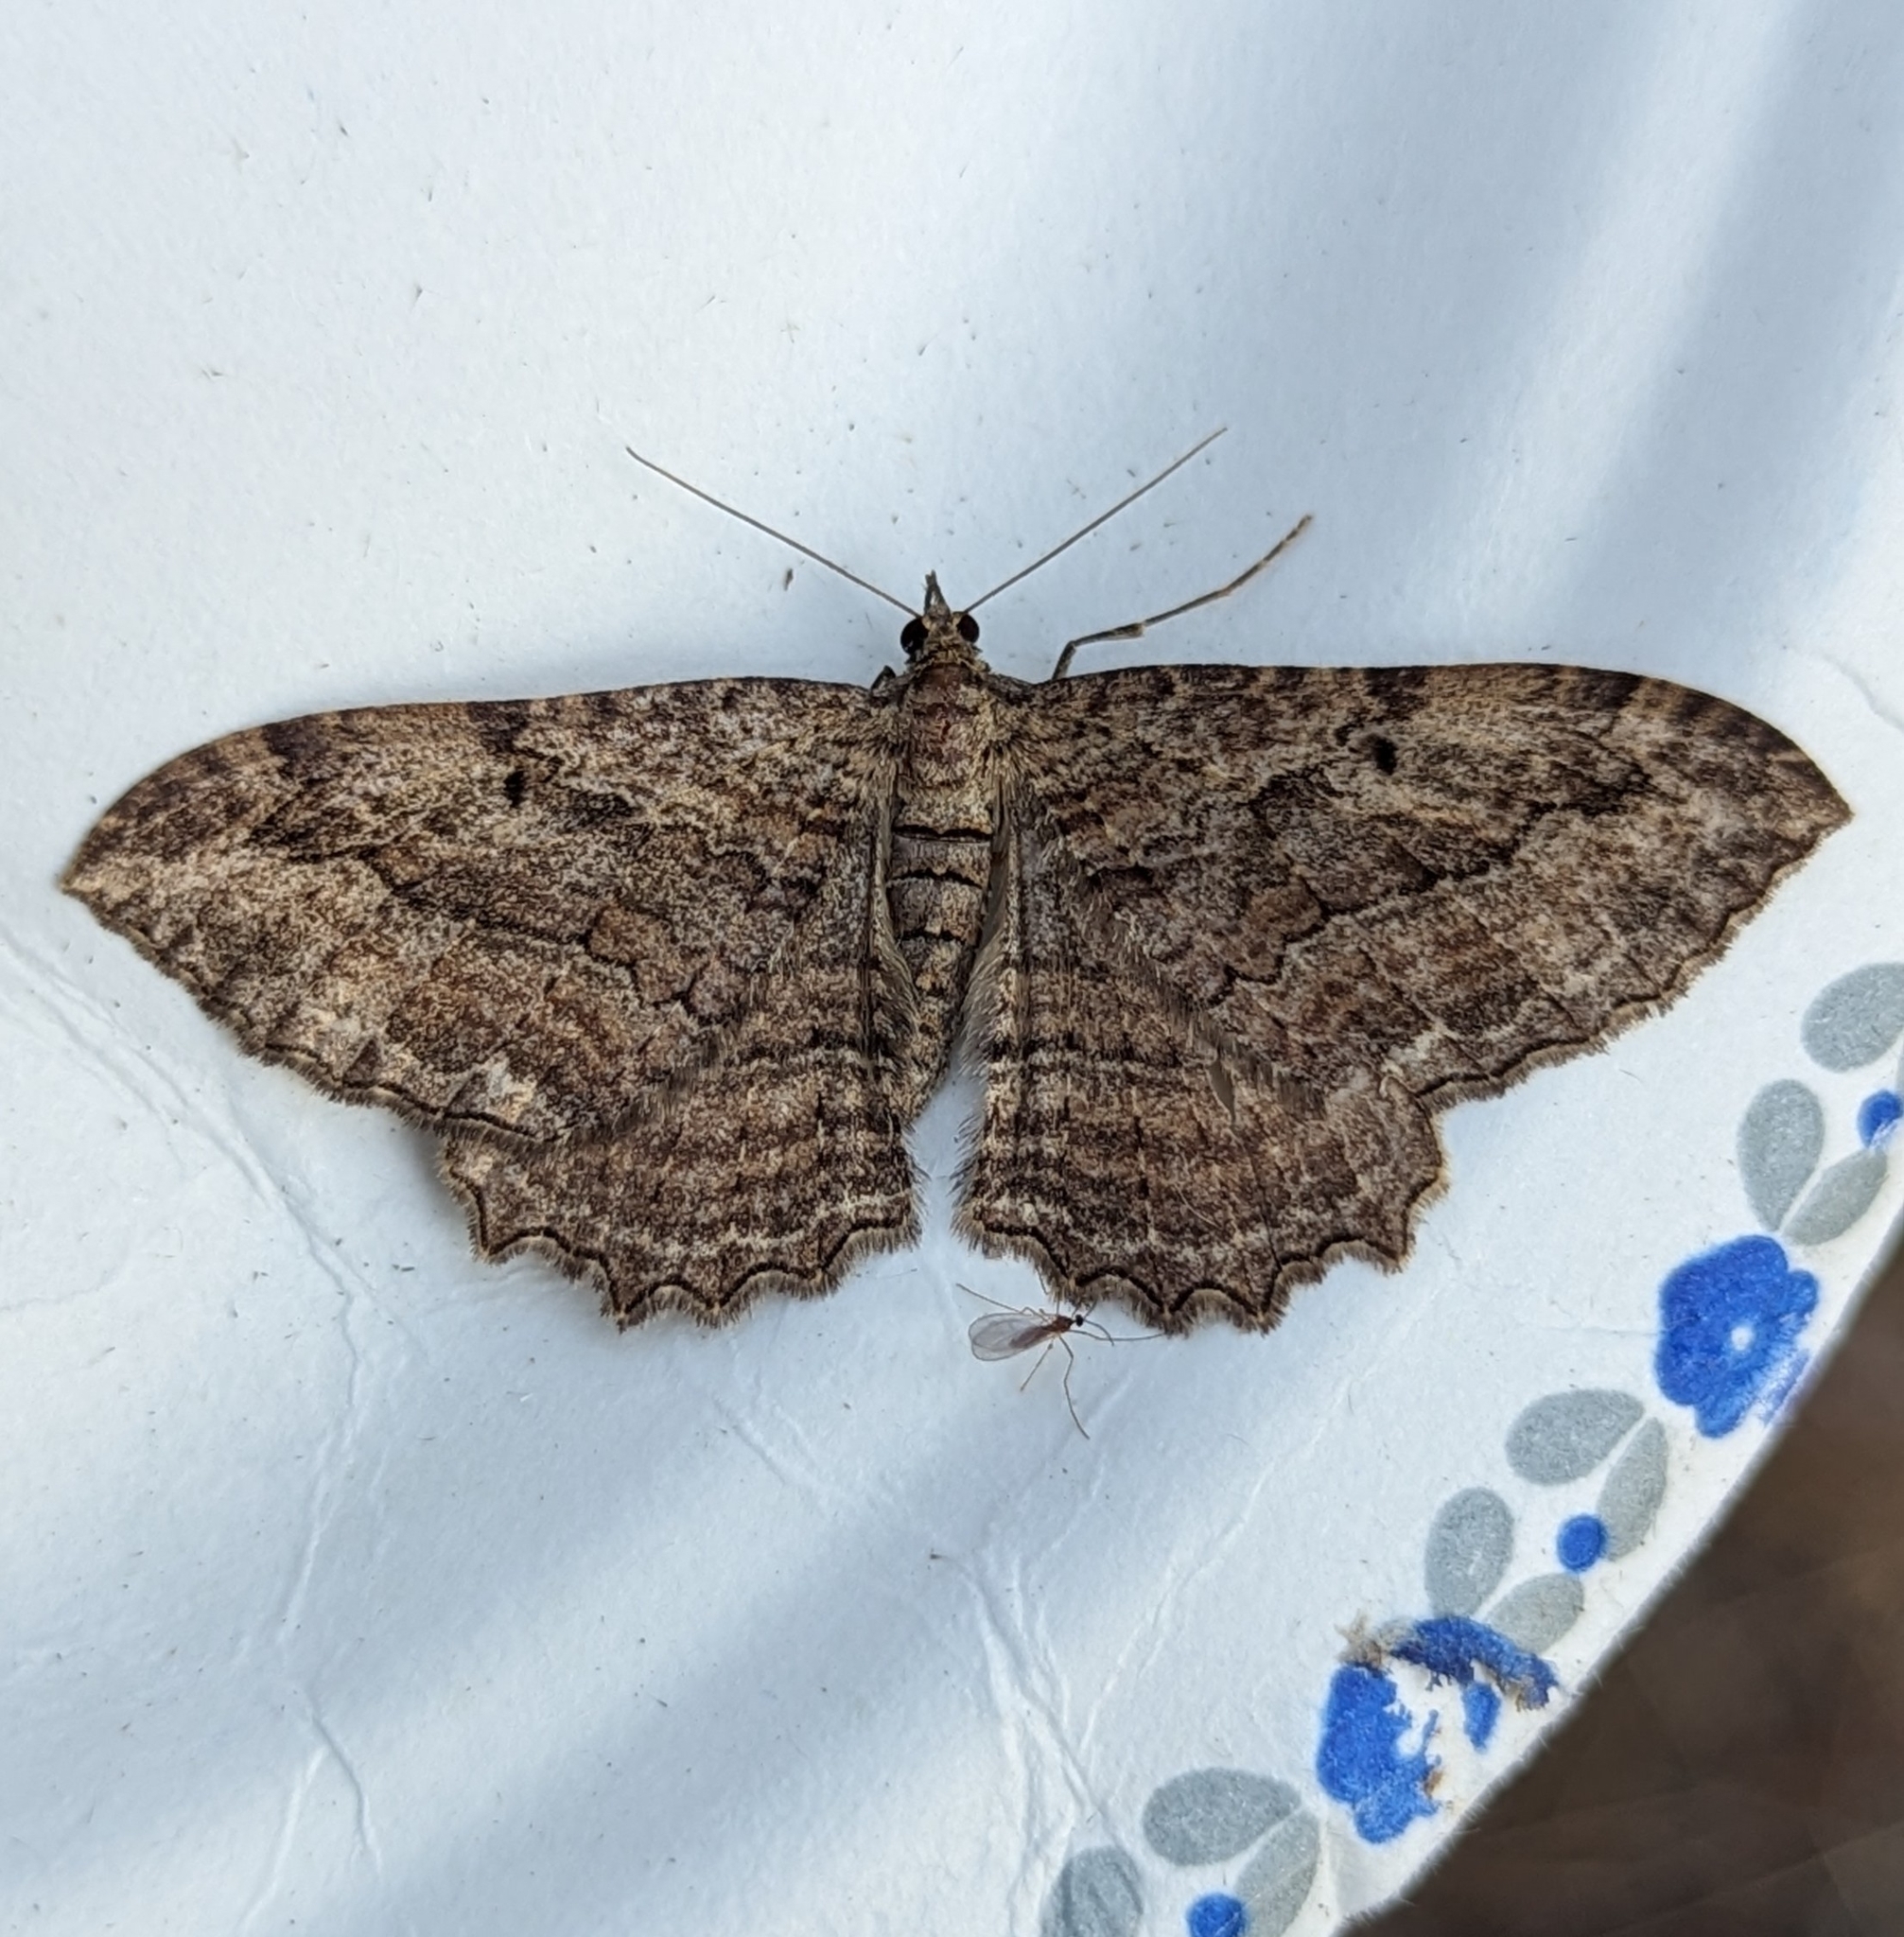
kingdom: Animalia
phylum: Arthropoda
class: Insecta
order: Lepidoptera
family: Geometridae
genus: Rheumaptera
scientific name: Rheumaptera
